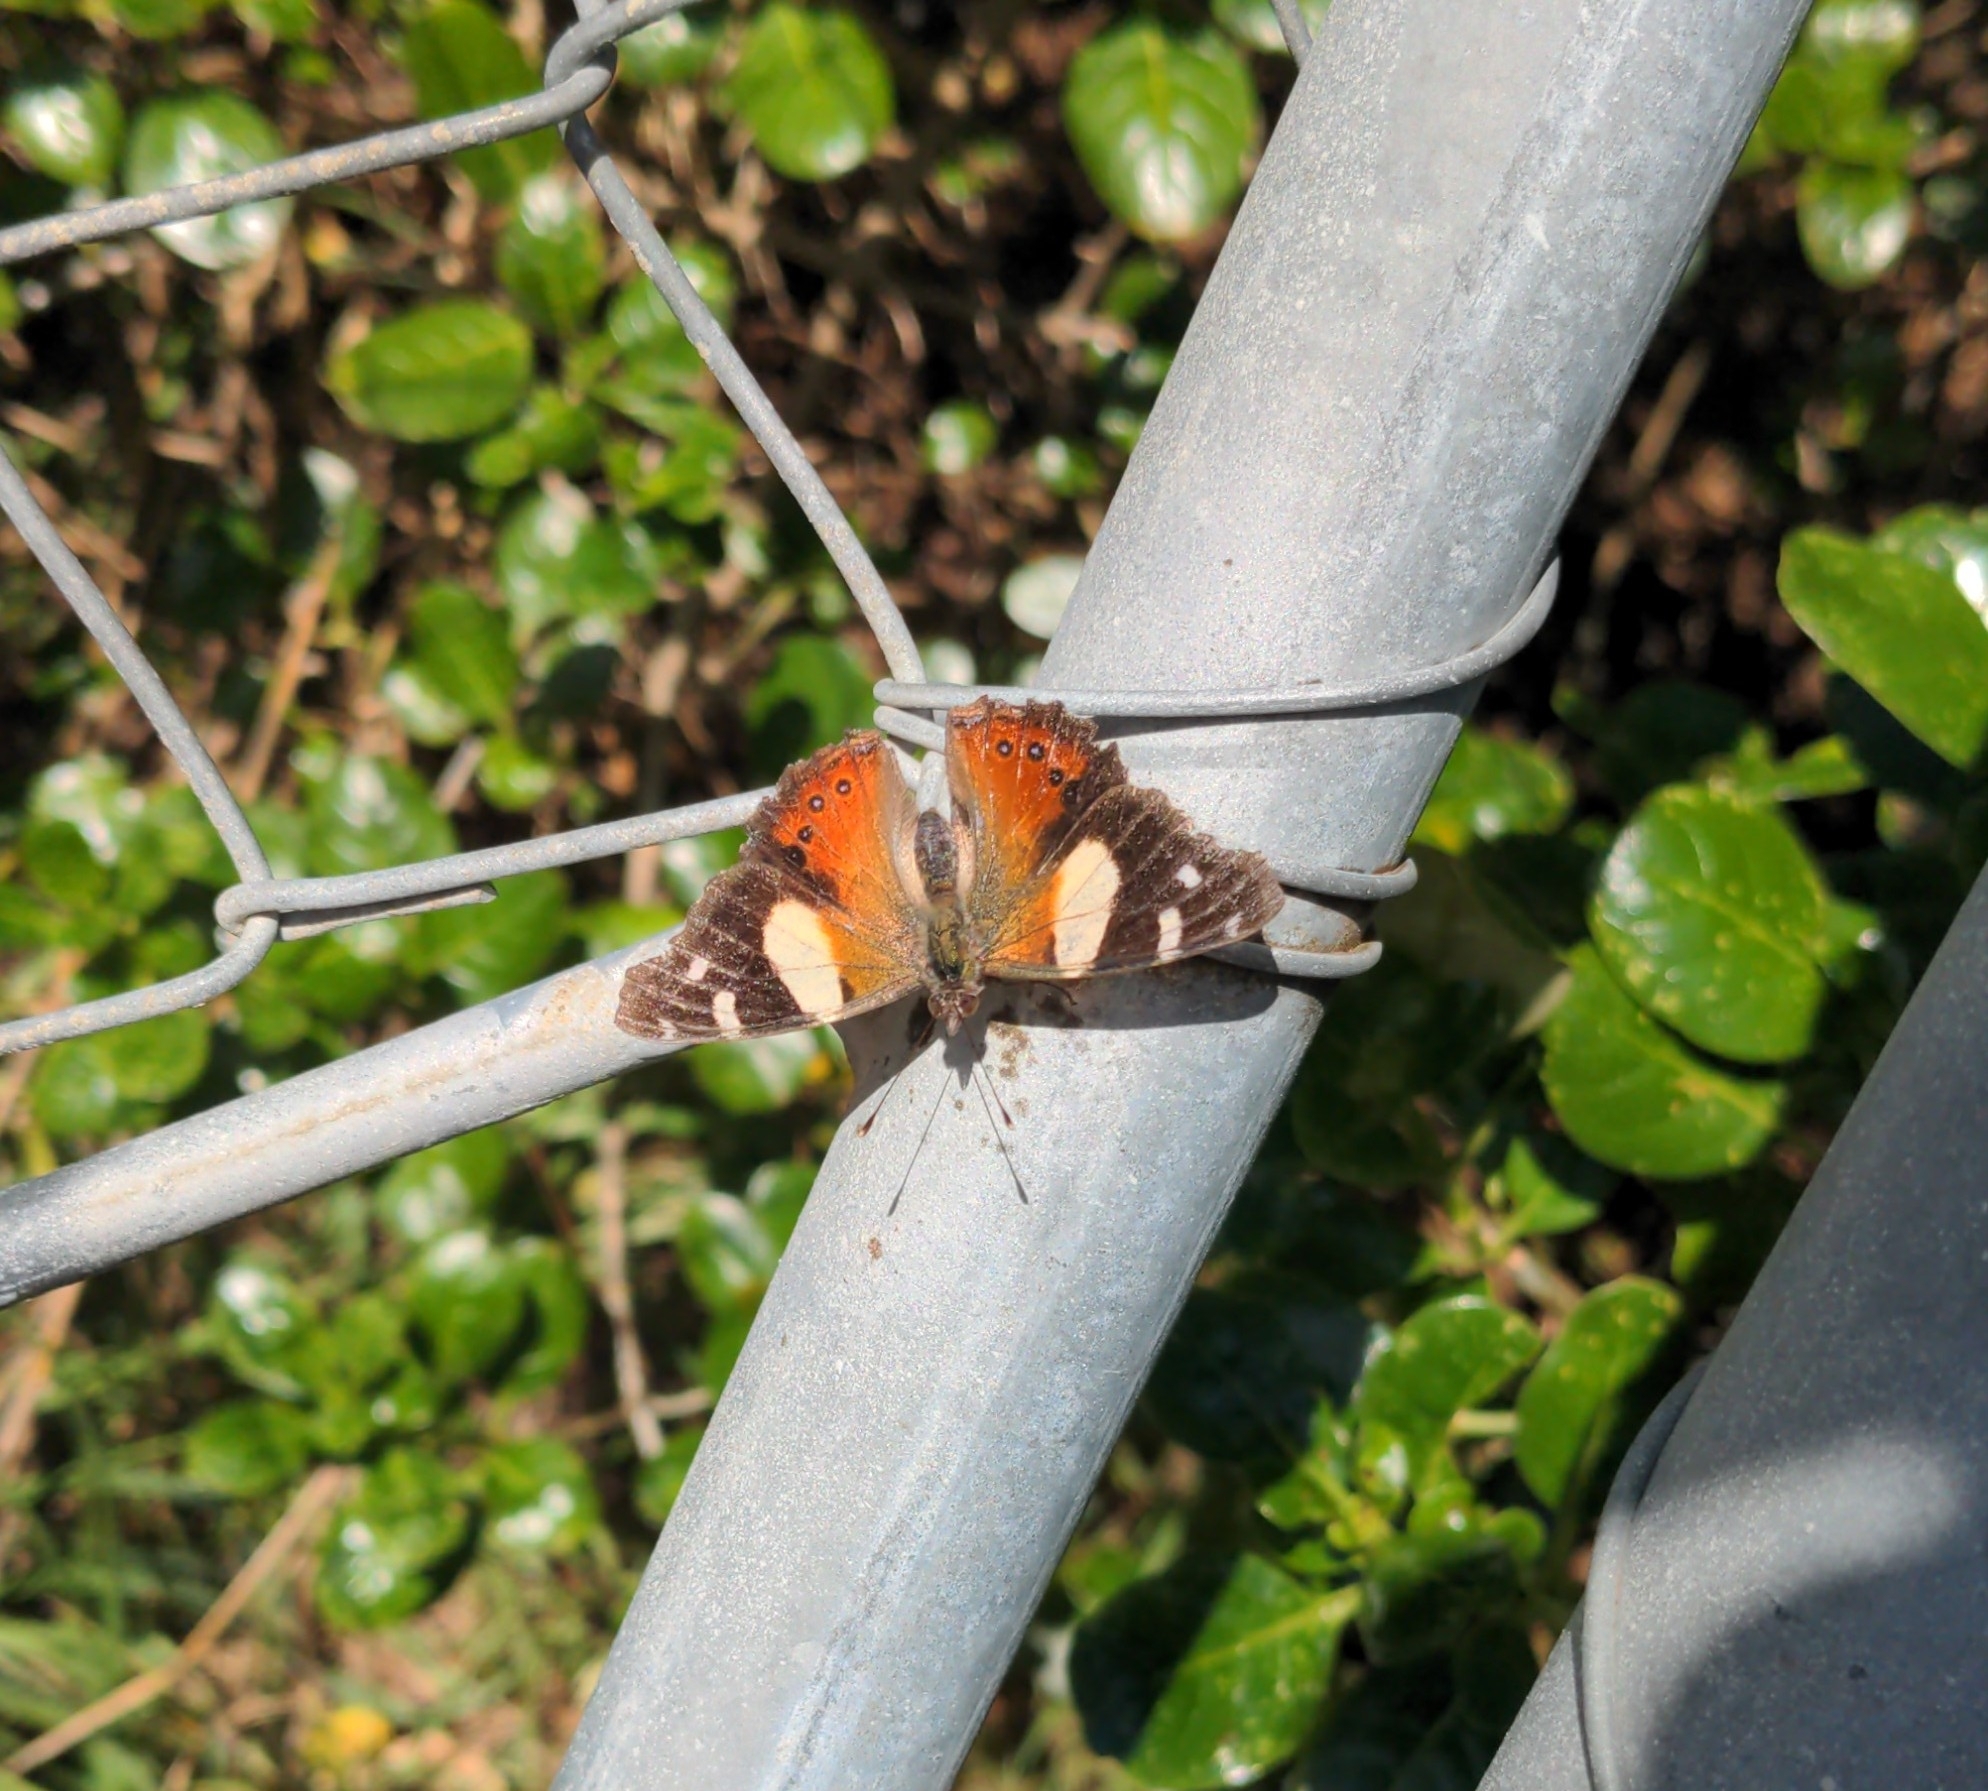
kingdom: Animalia
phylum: Arthropoda
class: Insecta
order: Lepidoptera
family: Nymphalidae
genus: Vanessa
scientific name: Vanessa itea
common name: Yellow admiral
